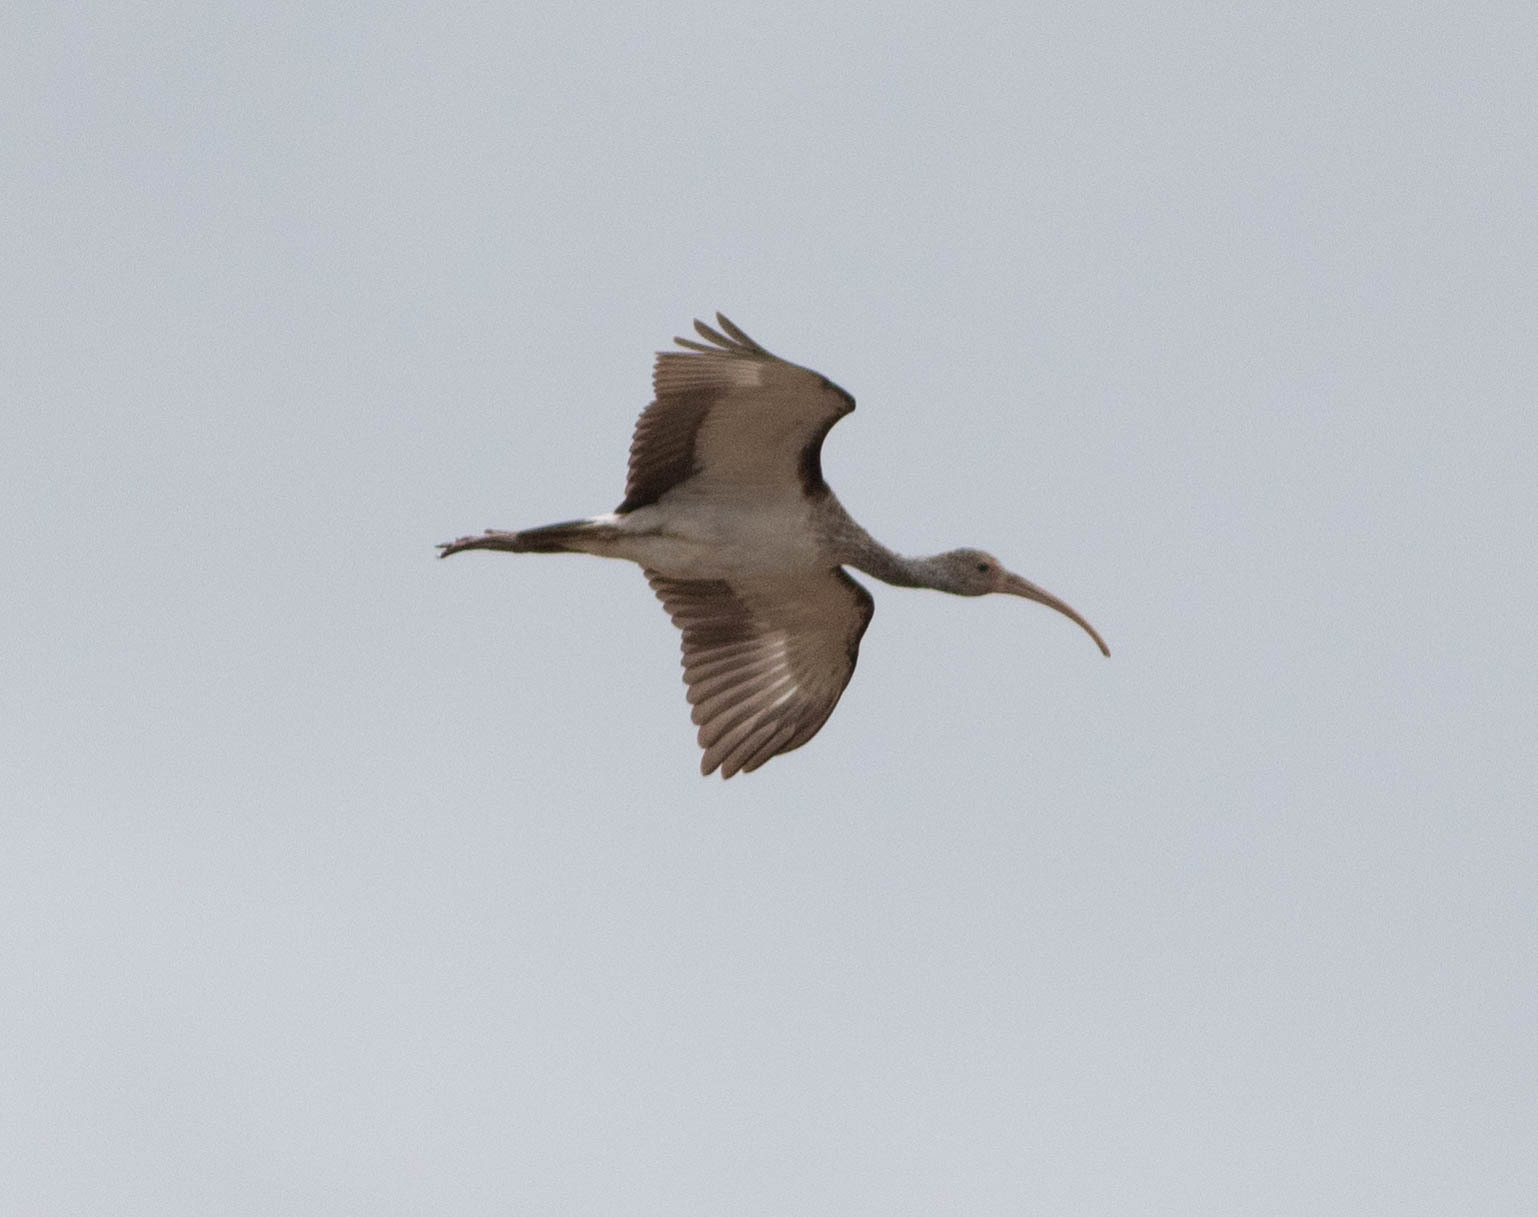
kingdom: Animalia
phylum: Chordata
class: Aves
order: Pelecaniformes
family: Threskiornithidae
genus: Eudocimus
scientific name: Eudocimus albus
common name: White ibis
